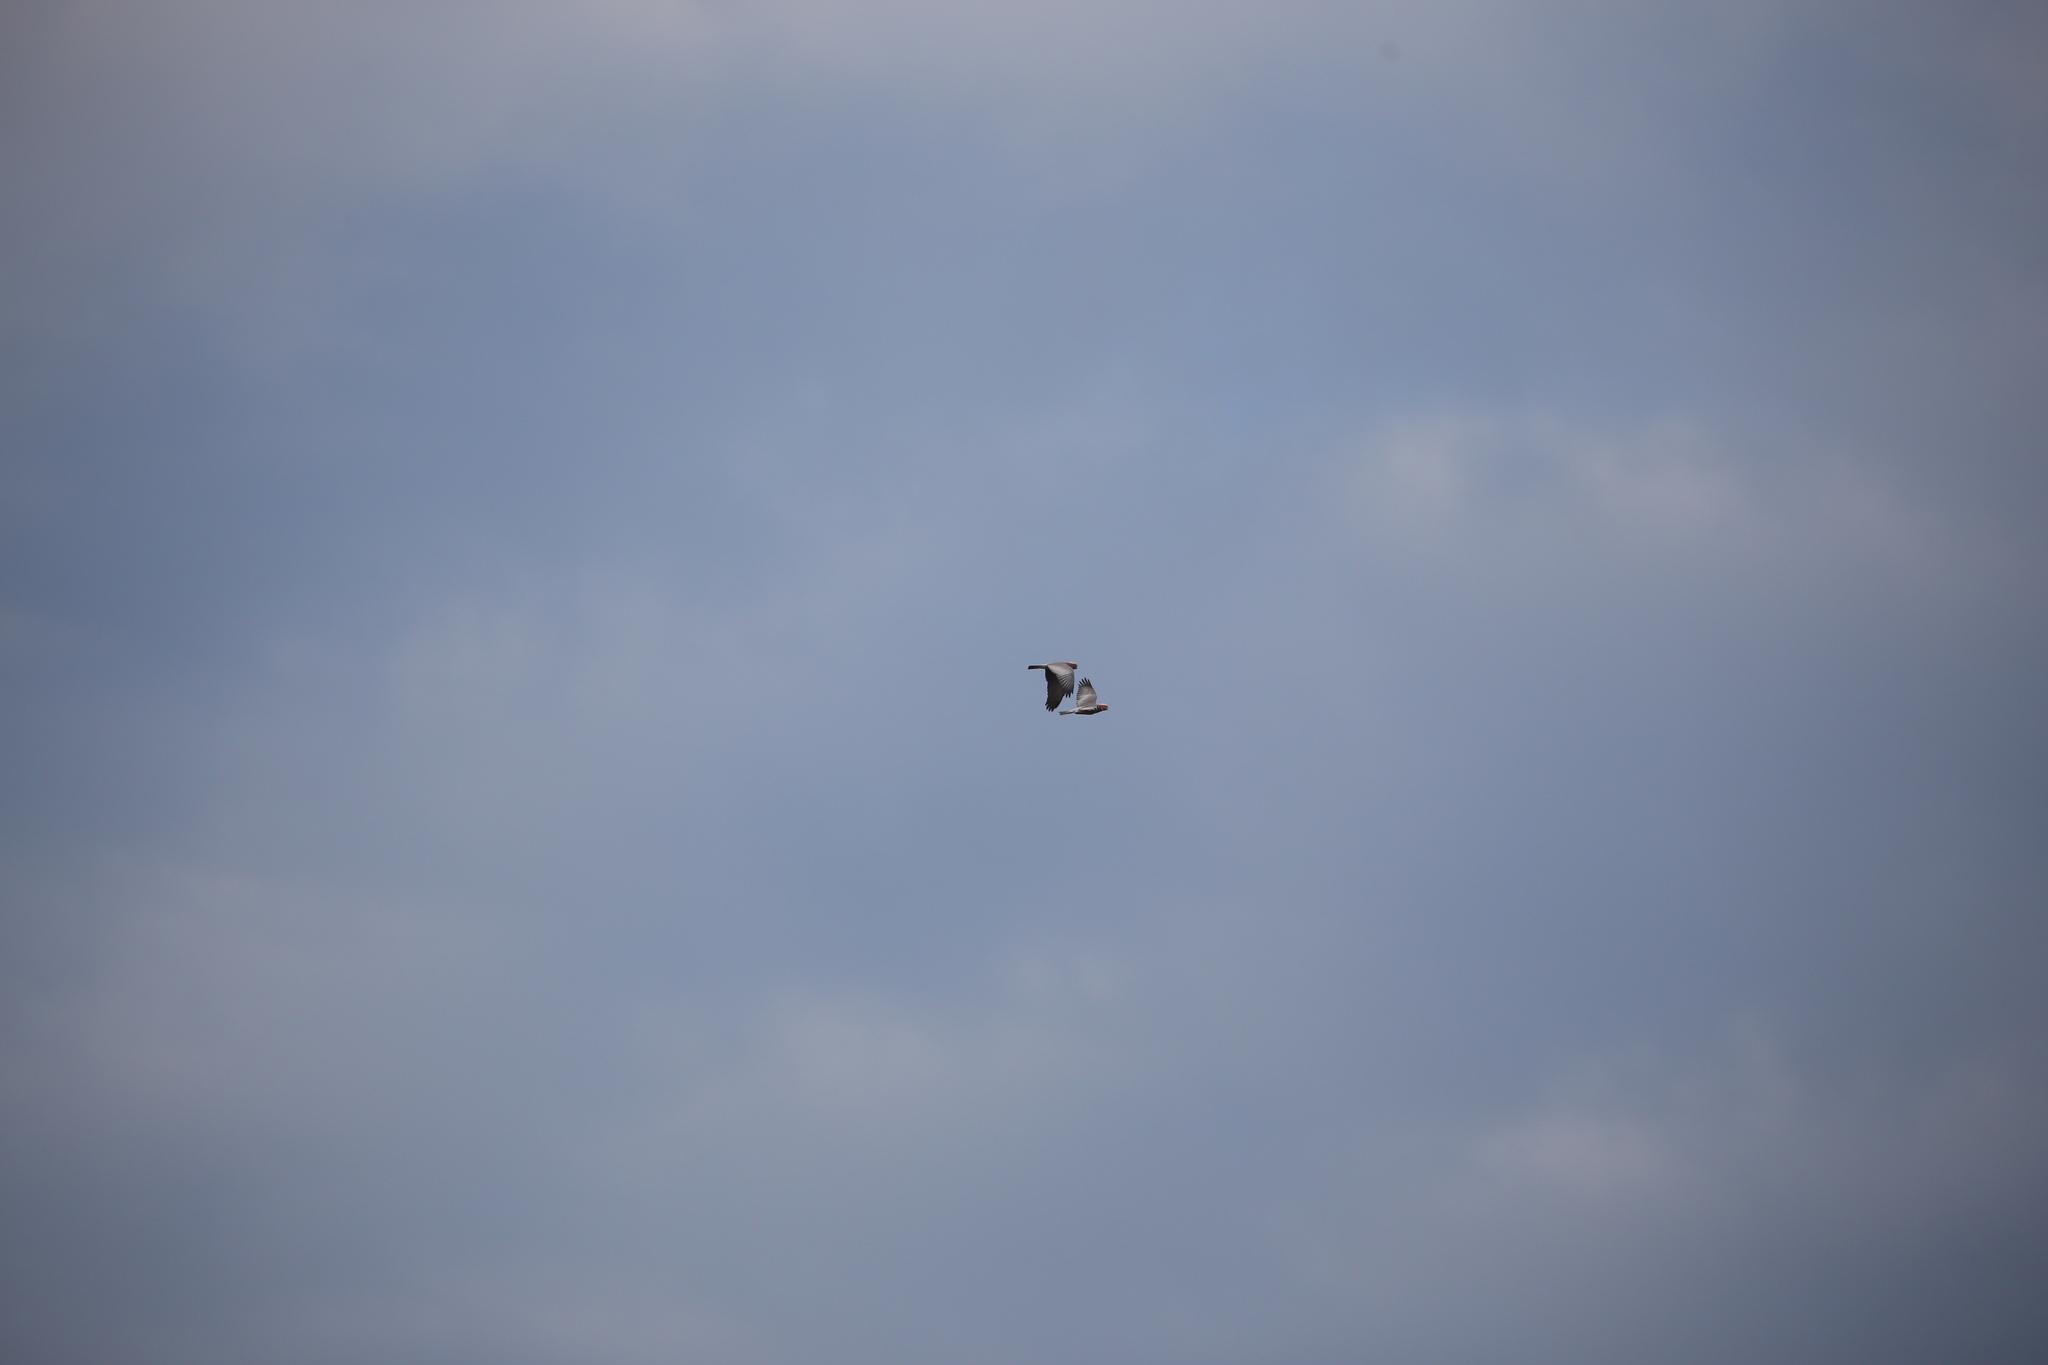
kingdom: Animalia
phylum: Chordata
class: Aves
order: Psittaciformes
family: Psittacidae
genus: Eolophus
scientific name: Eolophus roseicapilla
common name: Galah
